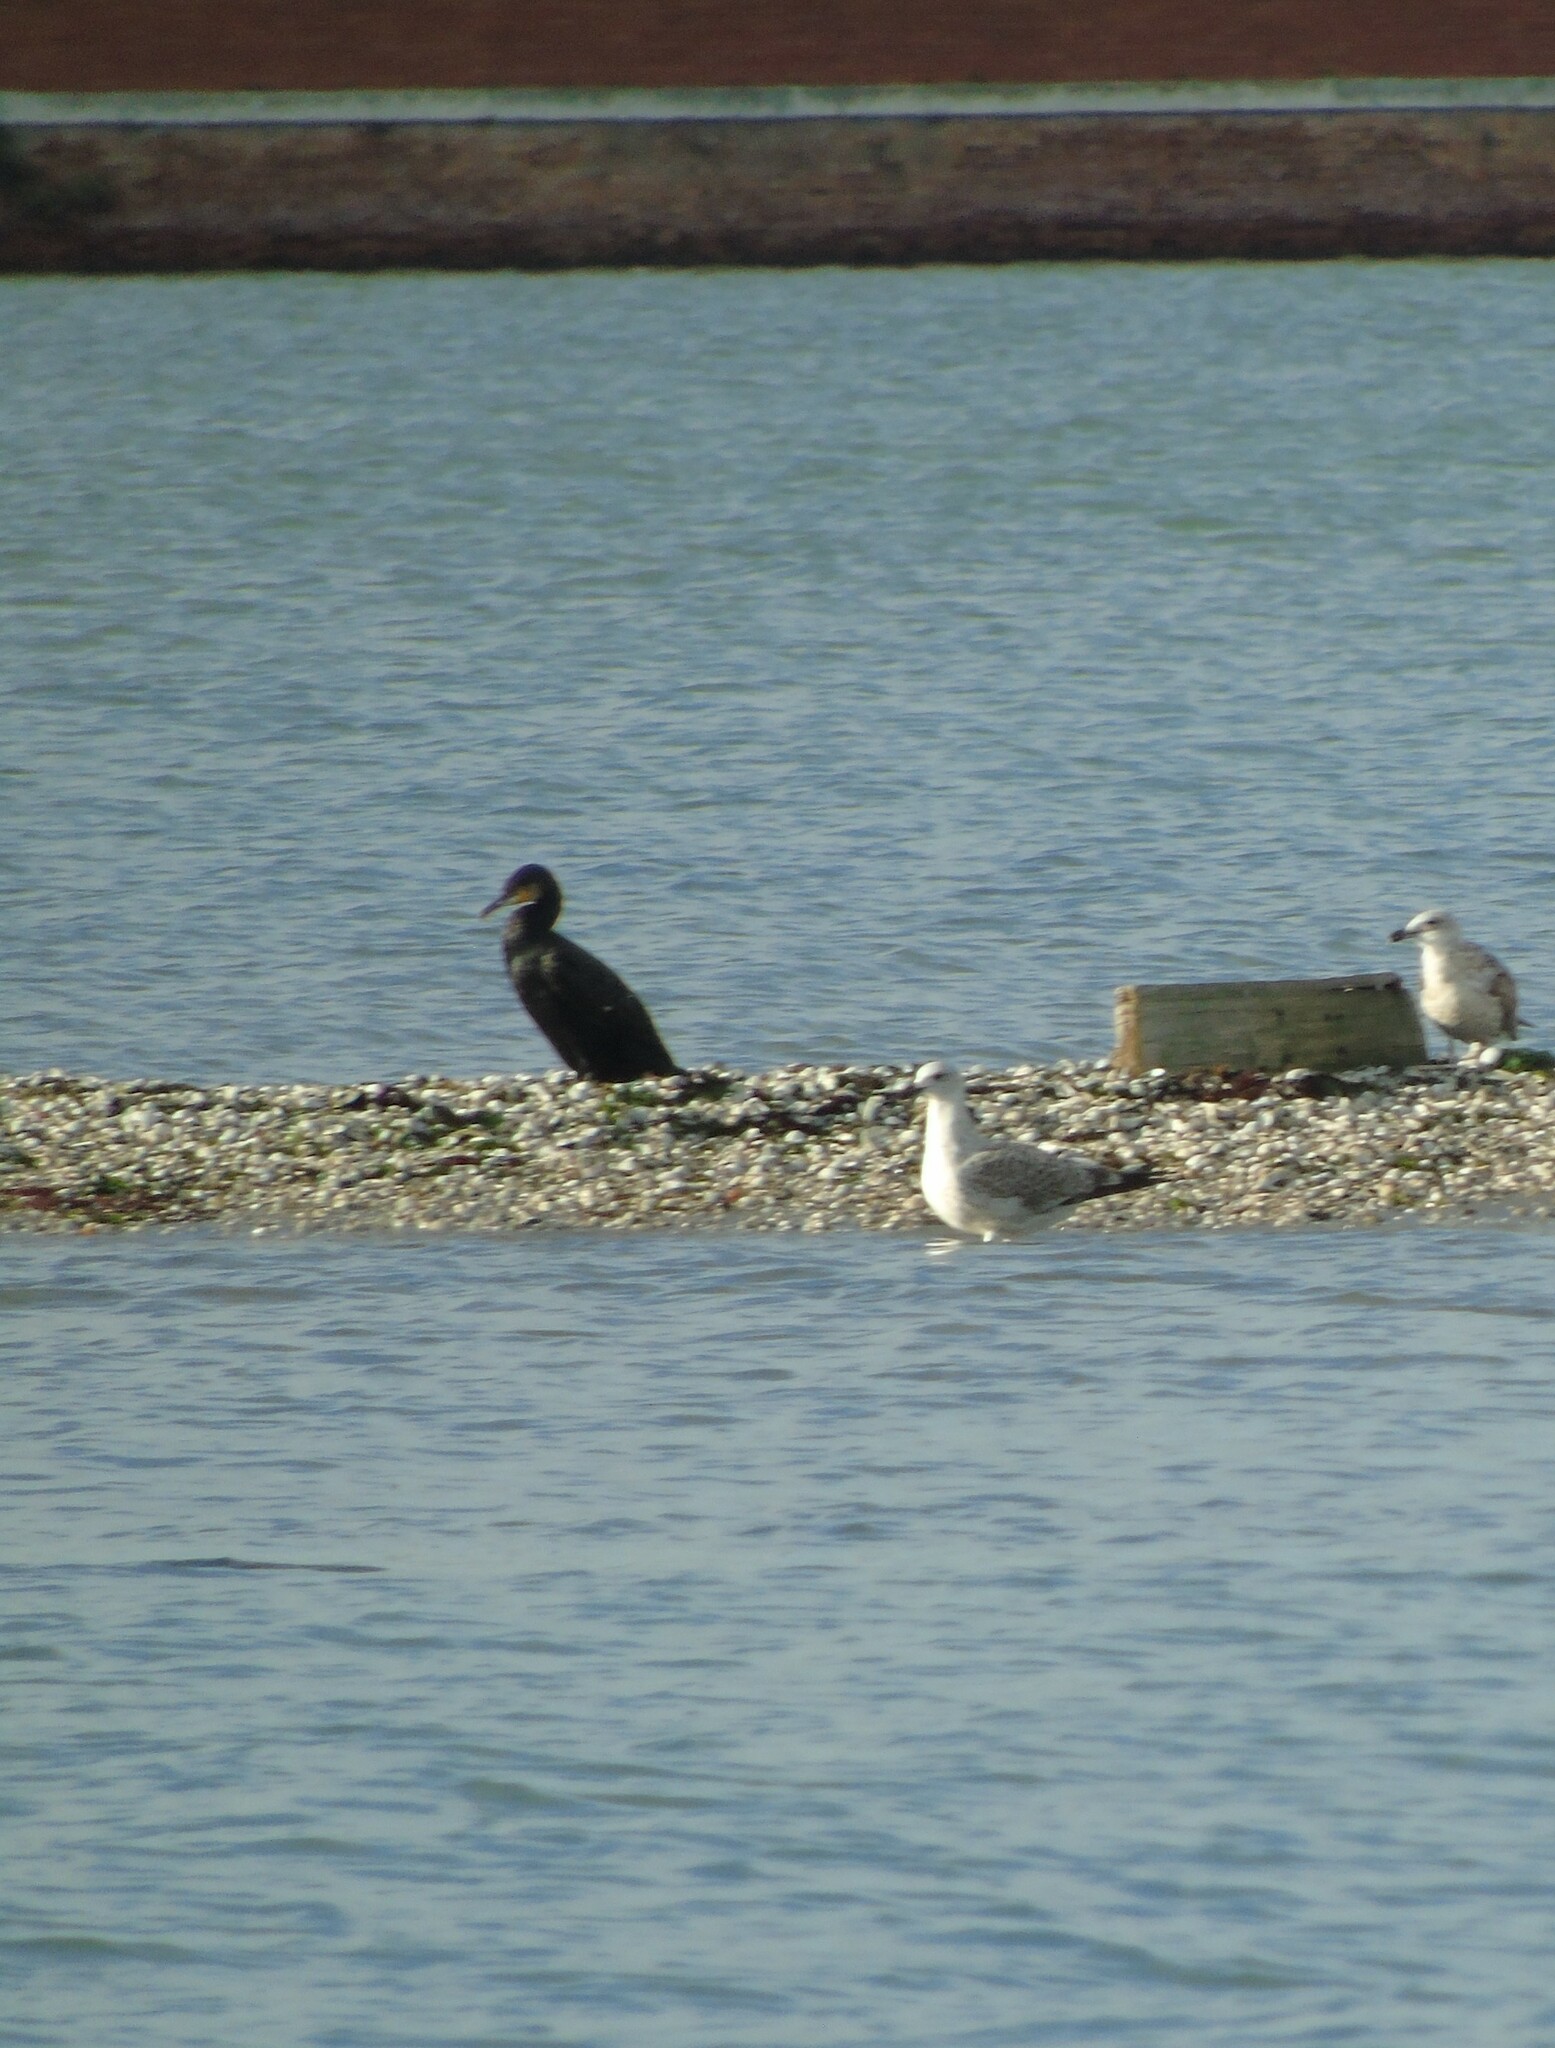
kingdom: Animalia
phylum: Chordata
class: Aves
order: Suliformes
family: Phalacrocoracidae
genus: Phalacrocorax
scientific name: Phalacrocorax carbo
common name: Great cormorant
